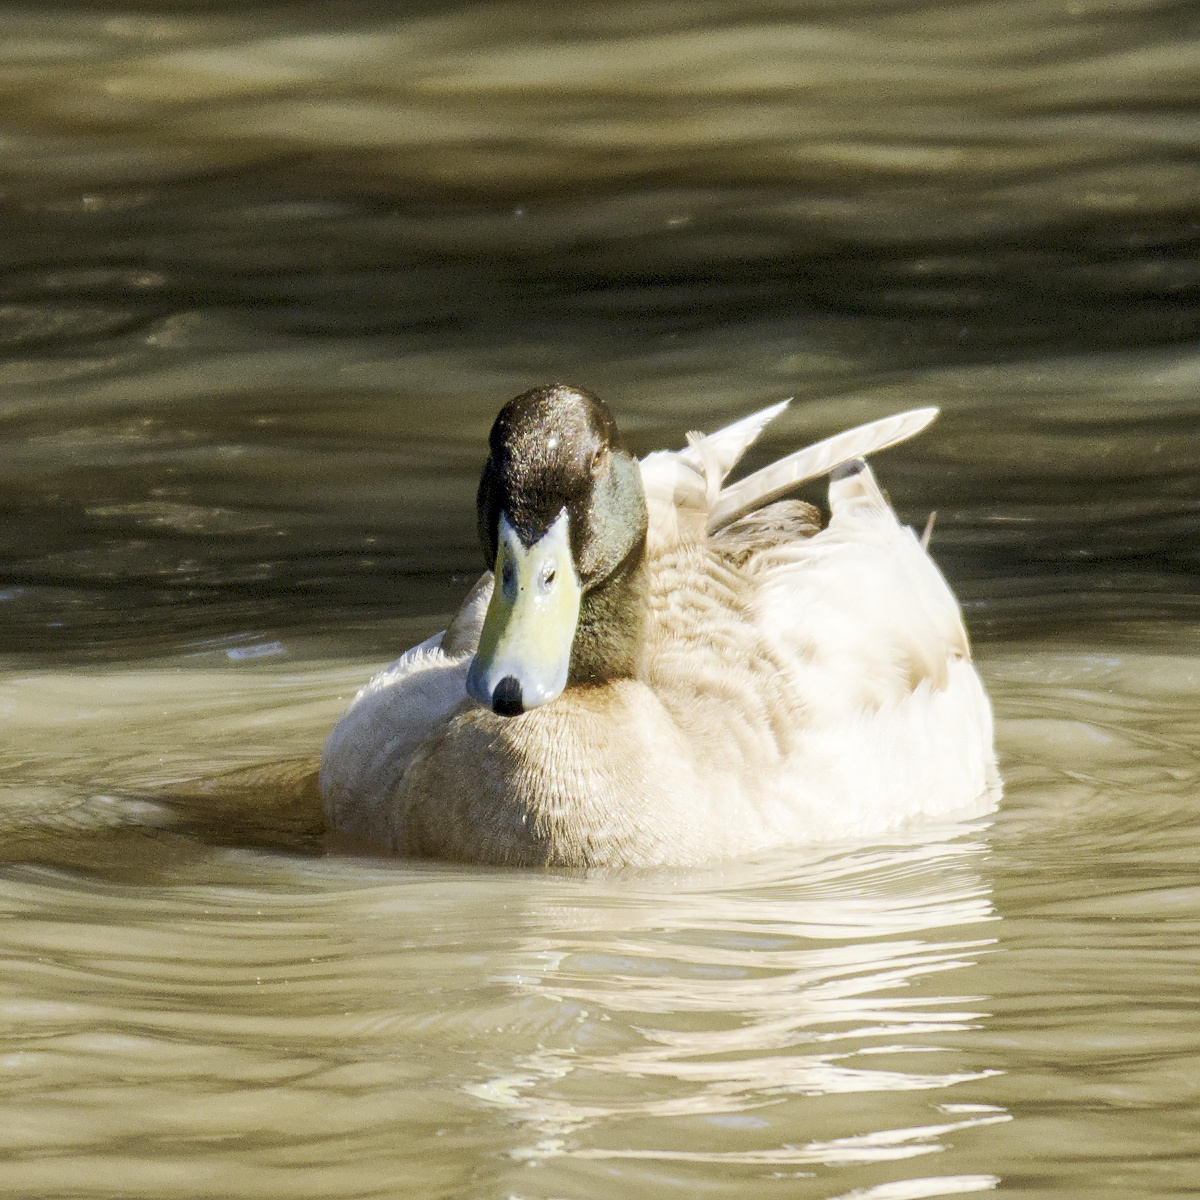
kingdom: Animalia
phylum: Chordata
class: Aves
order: Anseriformes
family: Anatidae
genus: Anas
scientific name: Anas platyrhynchos
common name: Mallard
